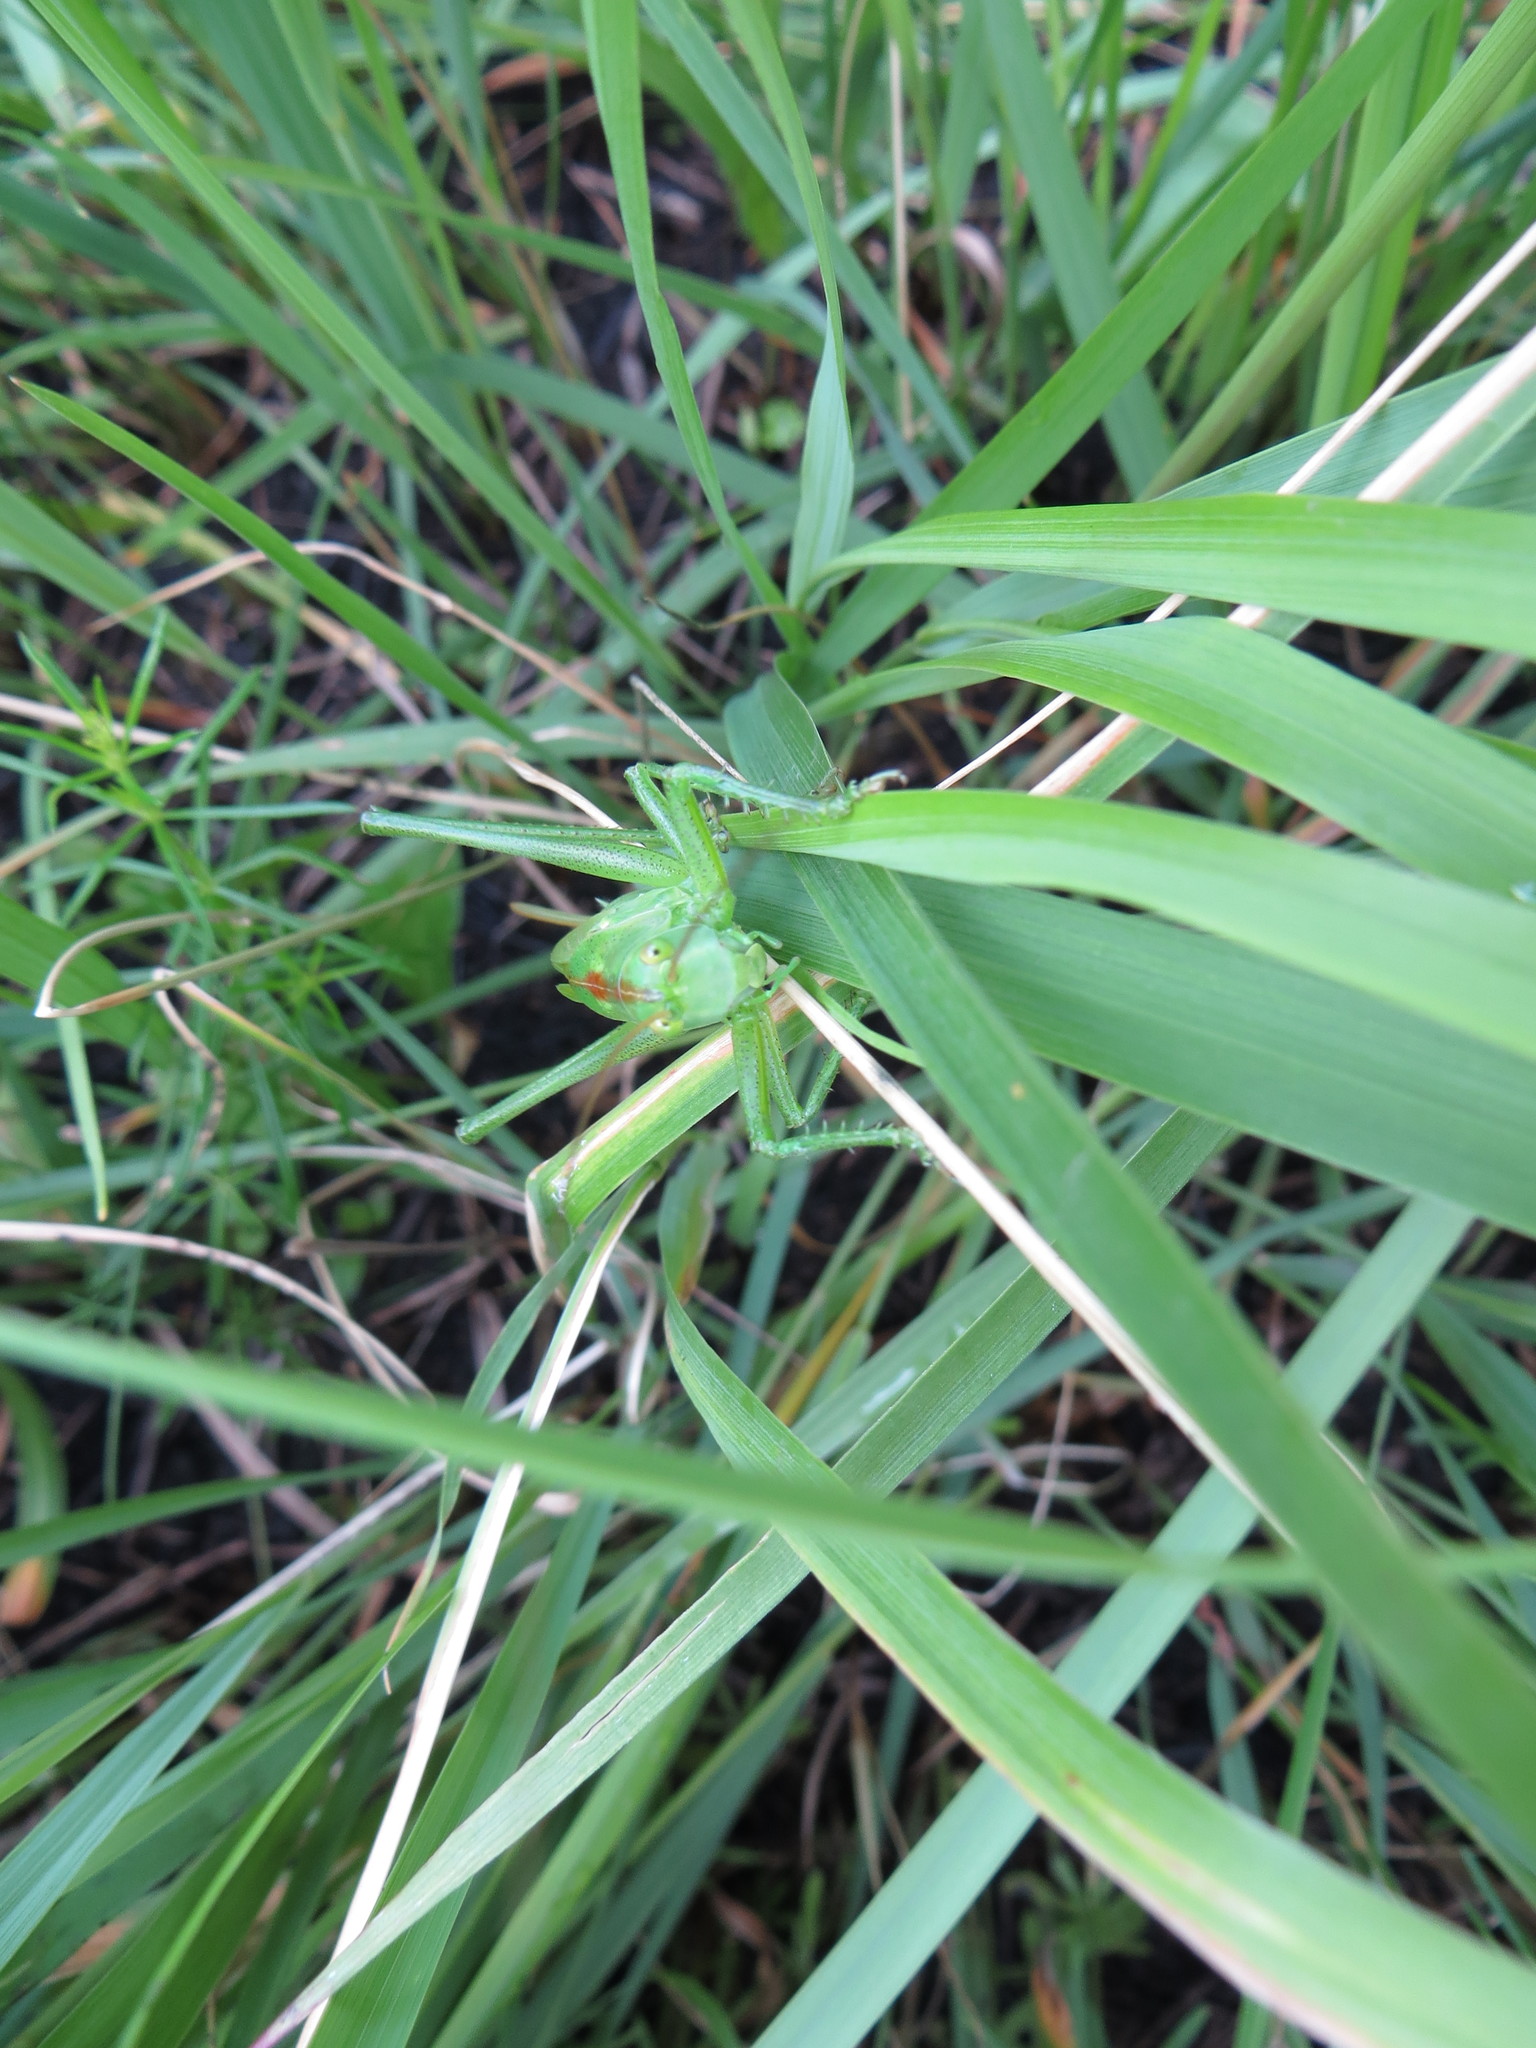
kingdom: Animalia
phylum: Arthropoda
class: Insecta
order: Orthoptera
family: Tettigoniidae
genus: Tettigonia
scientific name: Tettigonia viridissima
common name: Great green bush-cricket
